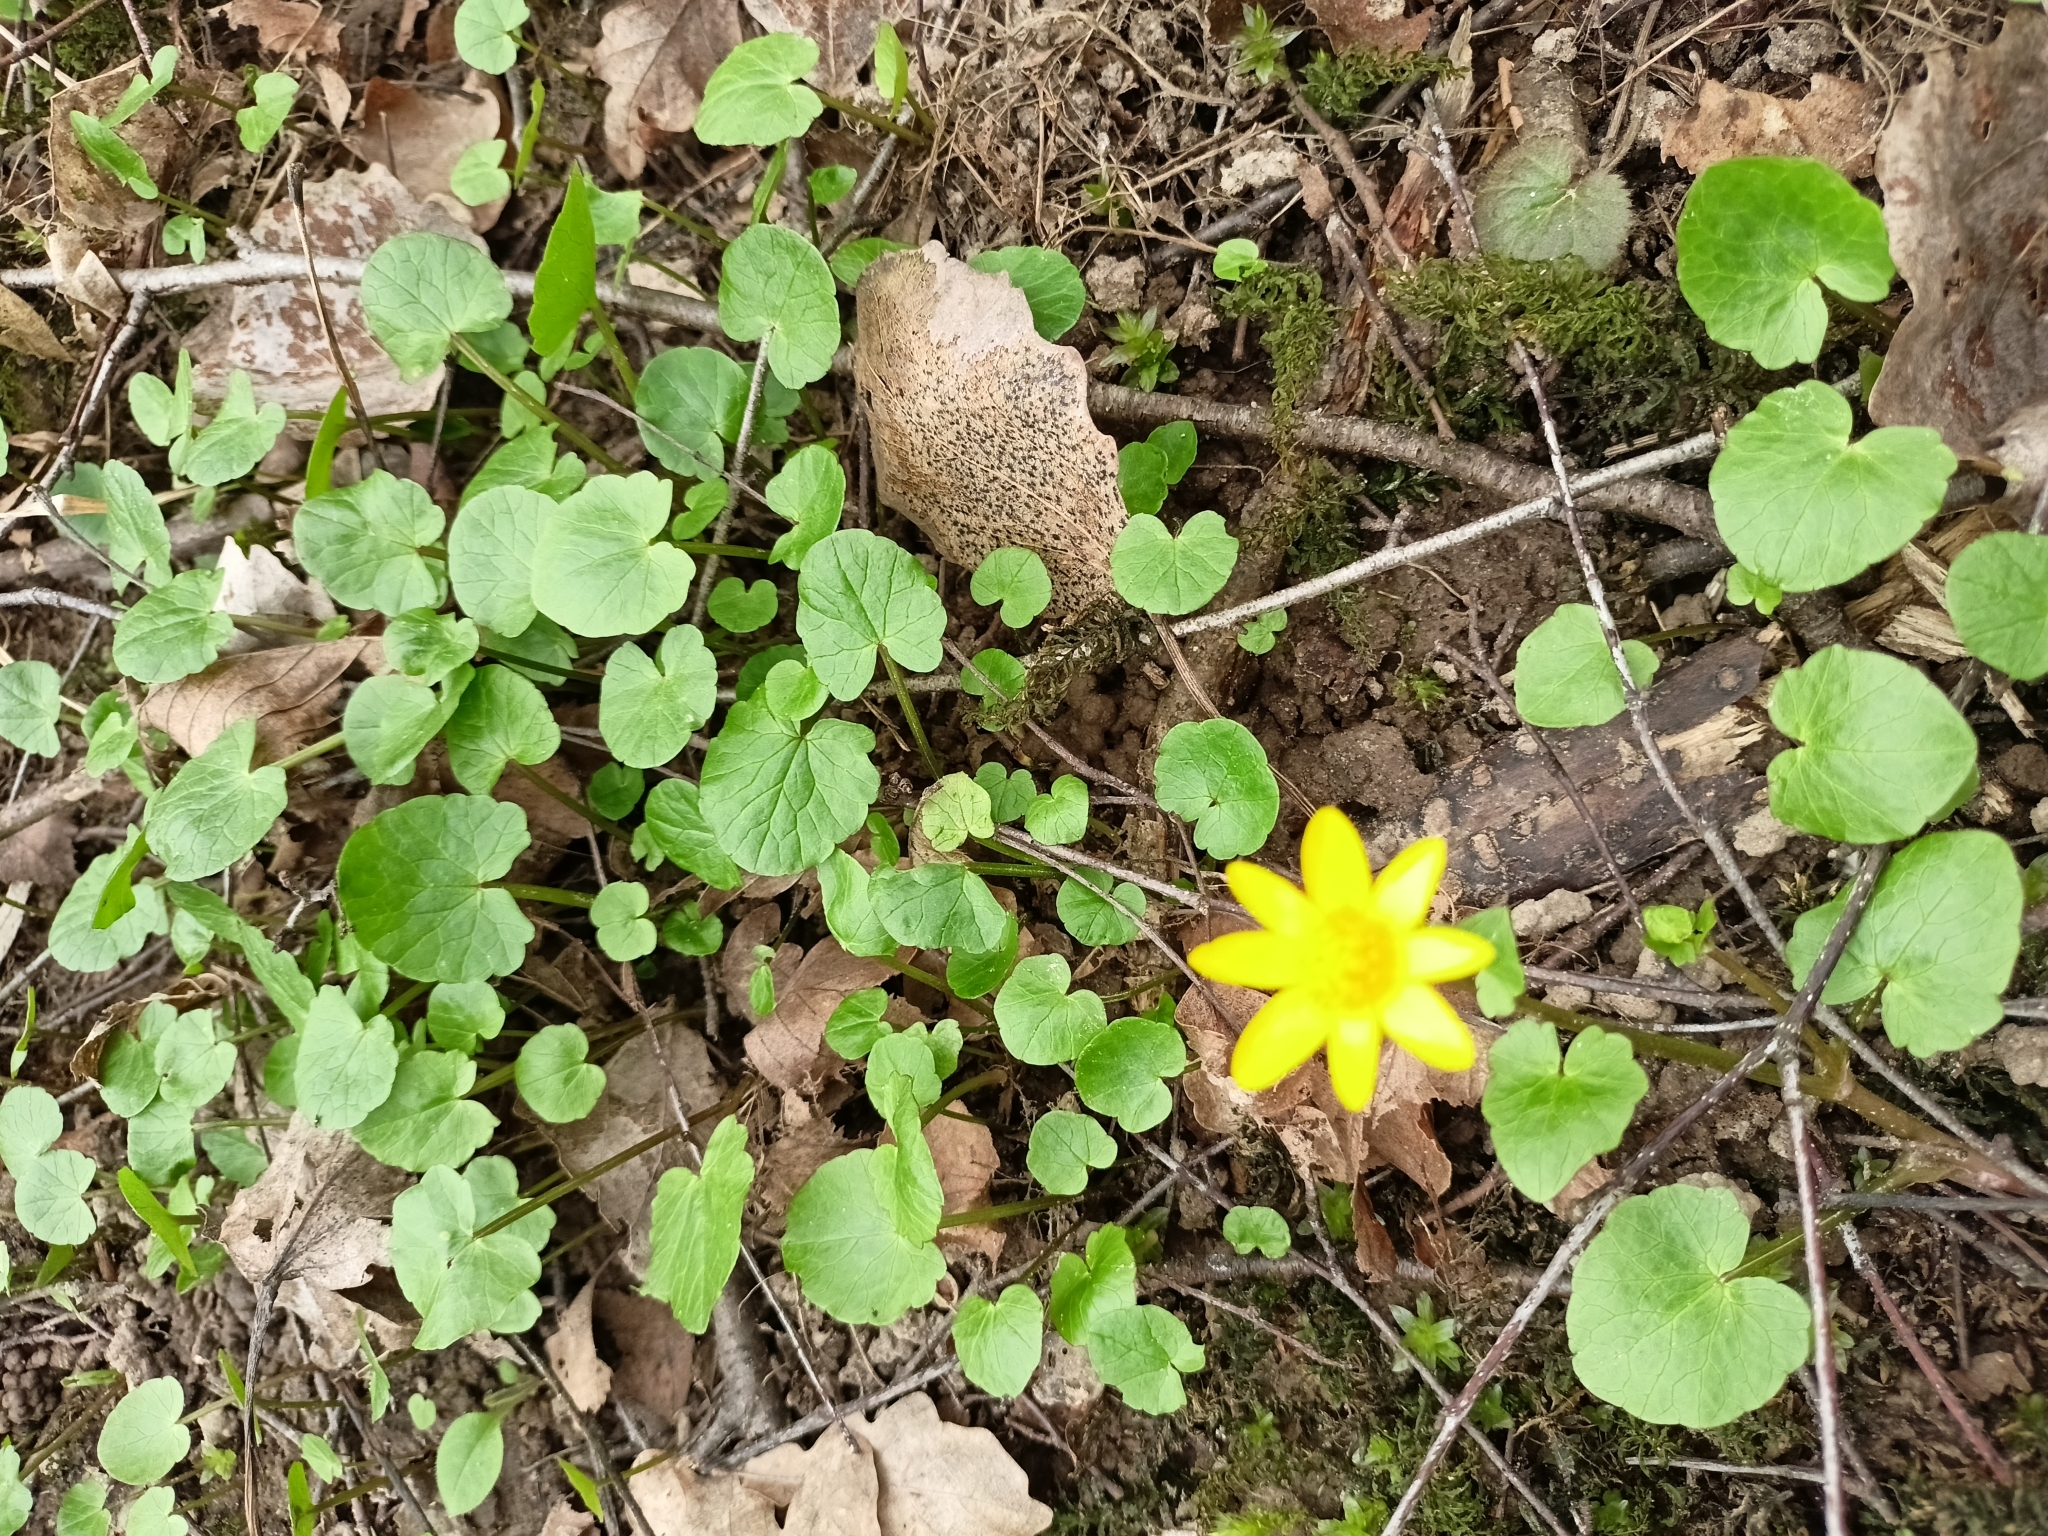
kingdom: Plantae
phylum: Tracheophyta
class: Magnoliopsida
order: Ranunculales
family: Ranunculaceae
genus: Ficaria
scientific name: Ficaria verna
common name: Lesser celandine
